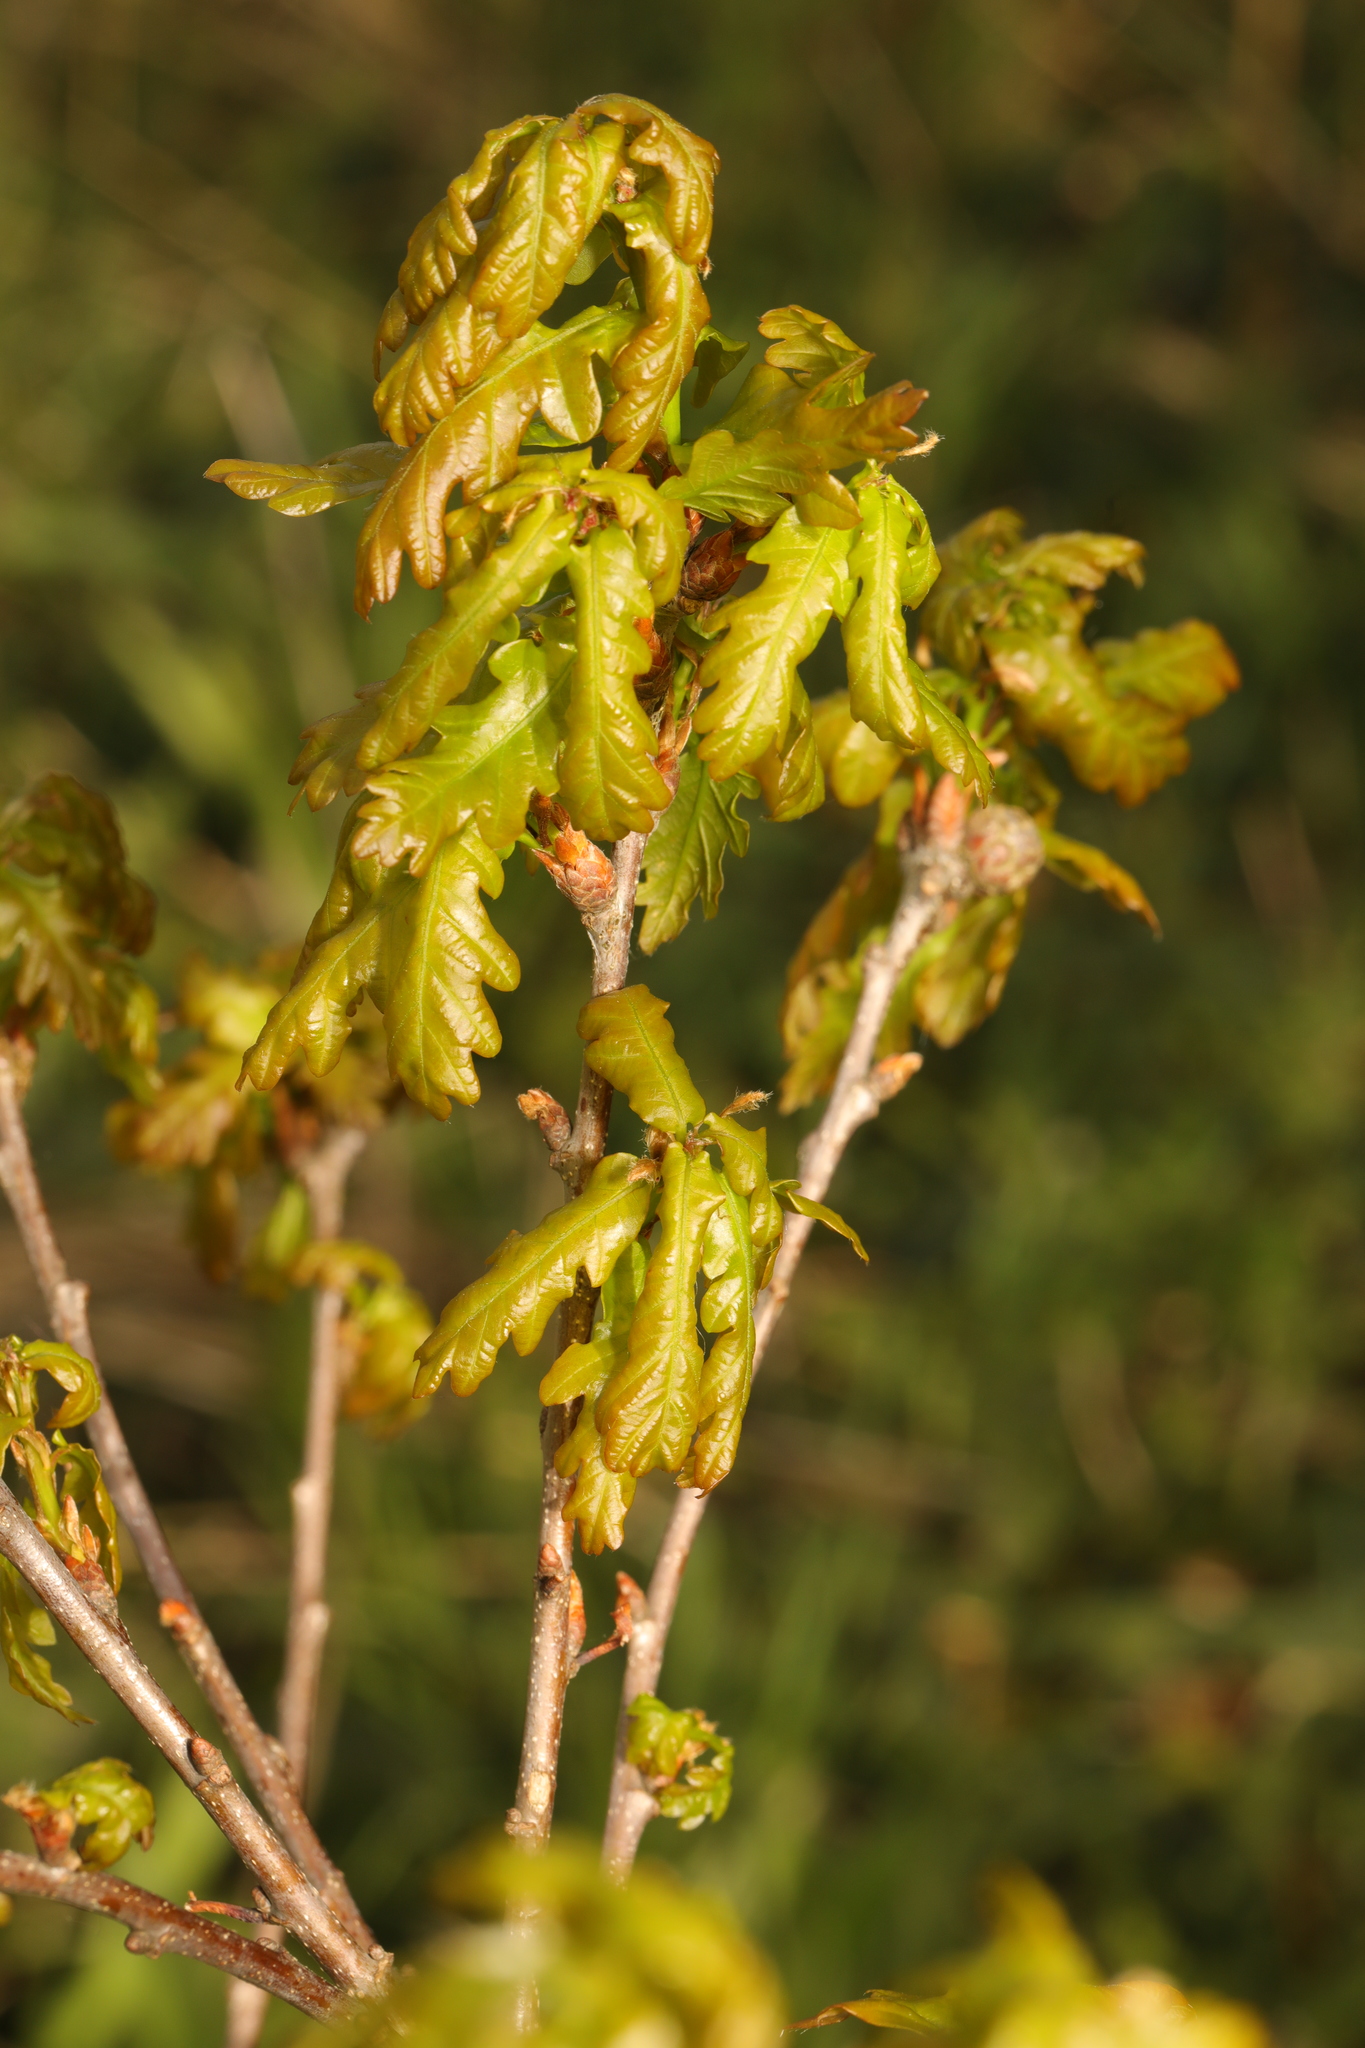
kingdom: Plantae
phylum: Tracheophyta
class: Magnoliopsida
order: Fagales
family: Fagaceae
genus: Quercus
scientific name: Quercus robur
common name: Pedunculate oak
